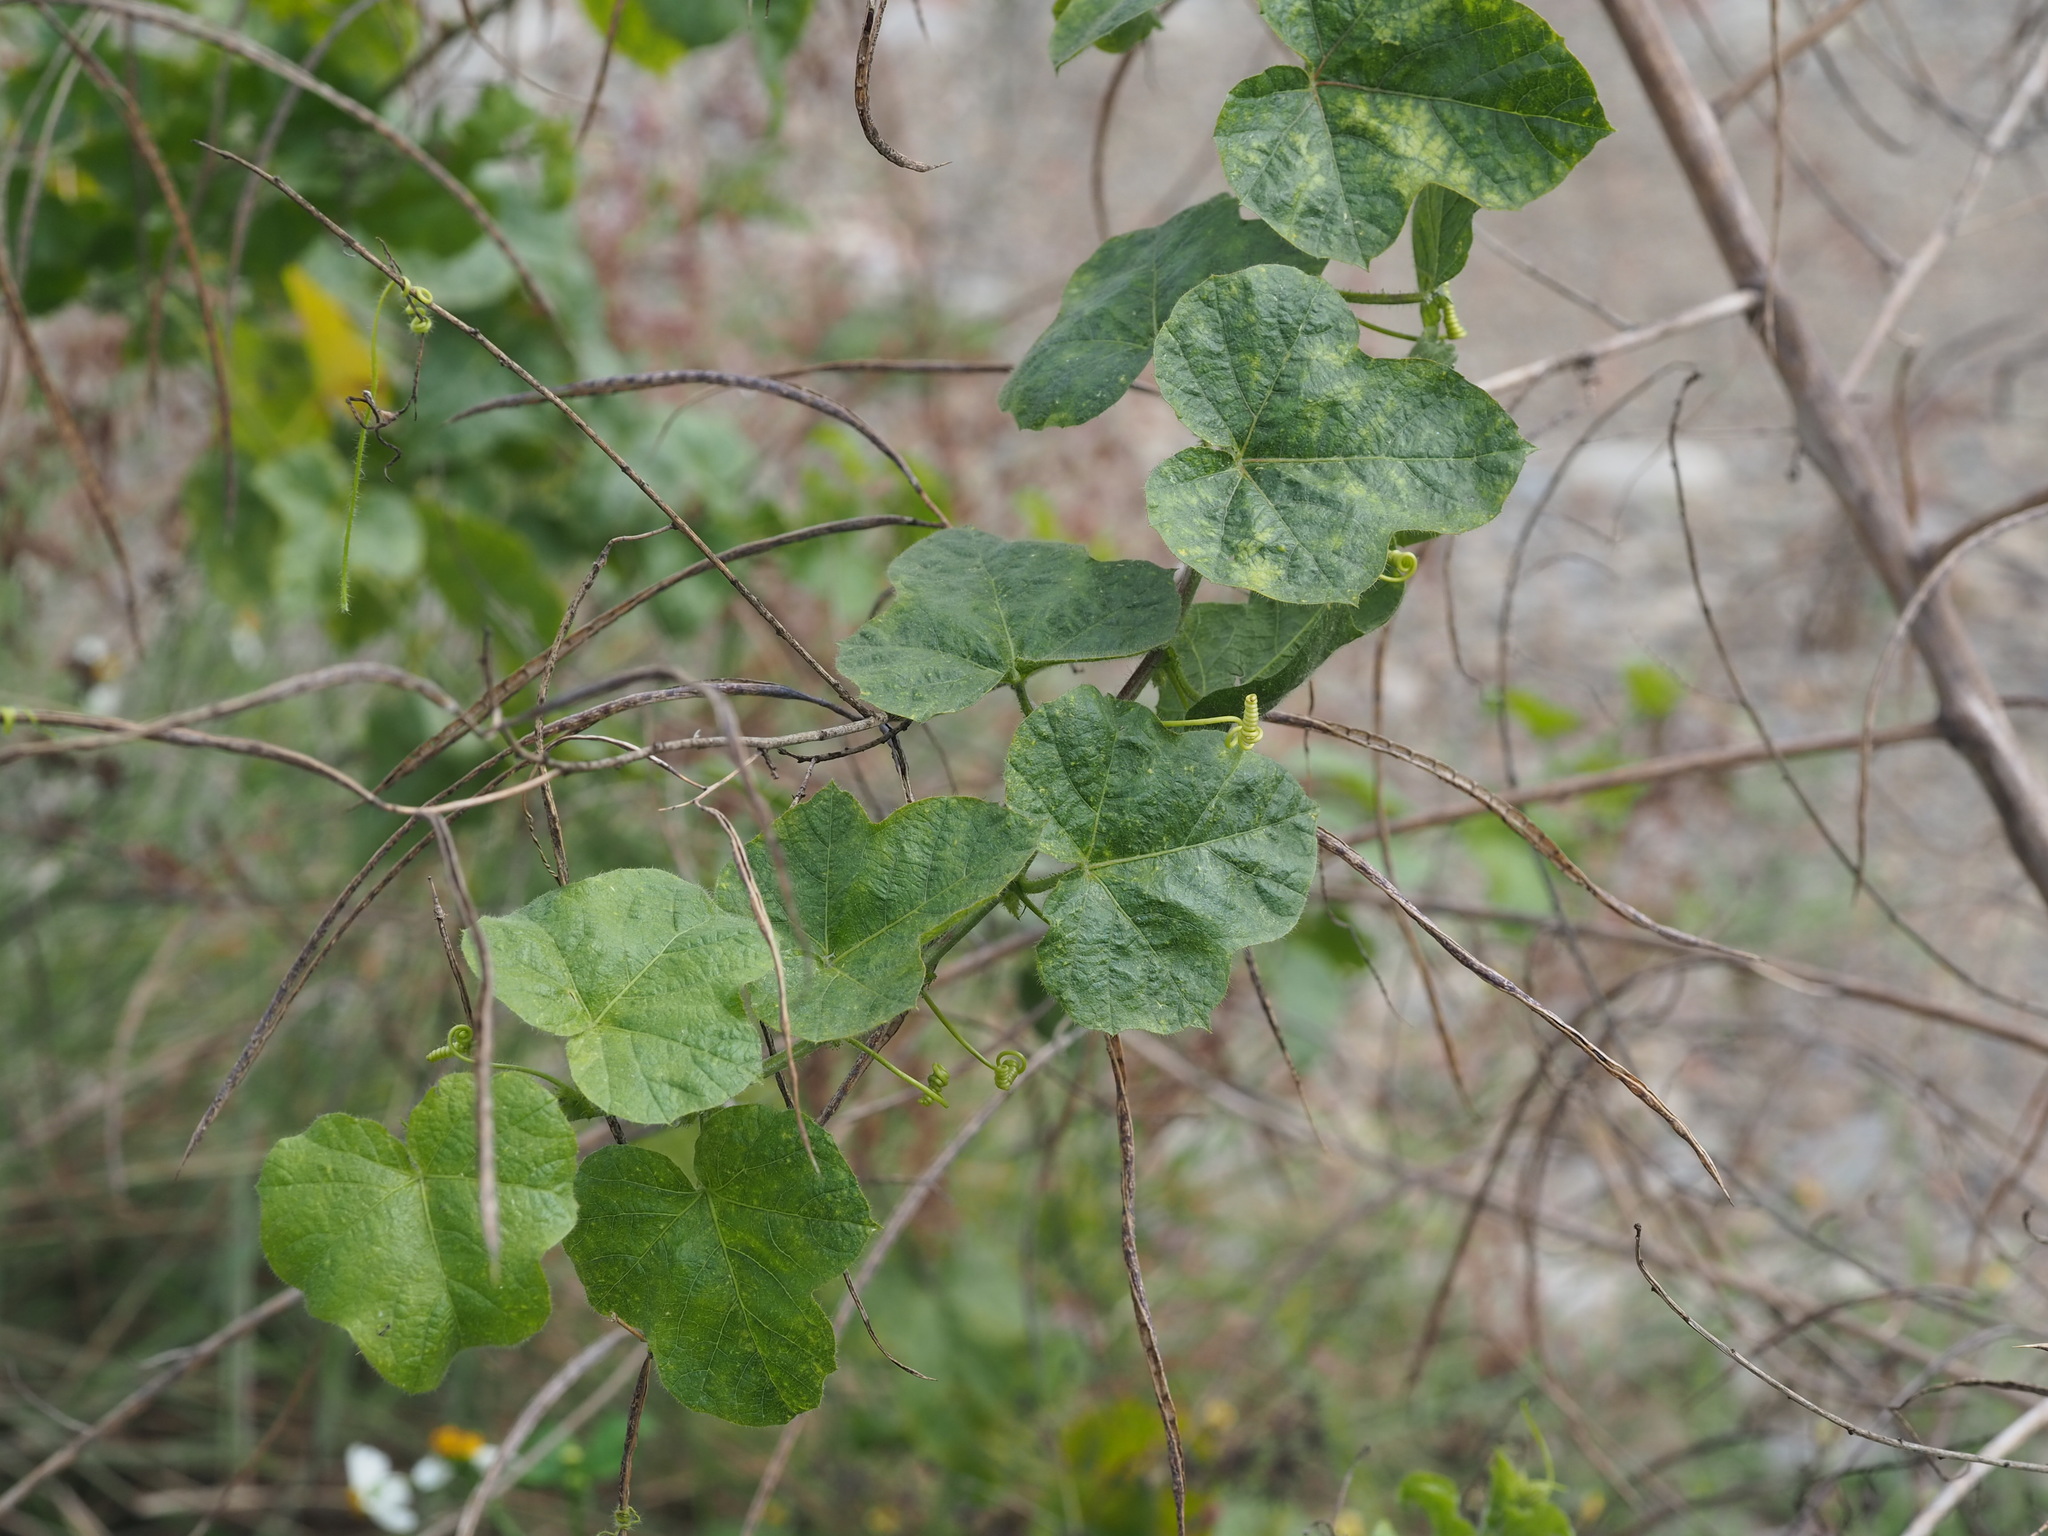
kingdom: Plantae
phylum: Tracheophyta
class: Magnoliopsida
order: Malpighiales
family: Passifloraceae
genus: Passiflora
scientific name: Passiflora vesicaria
